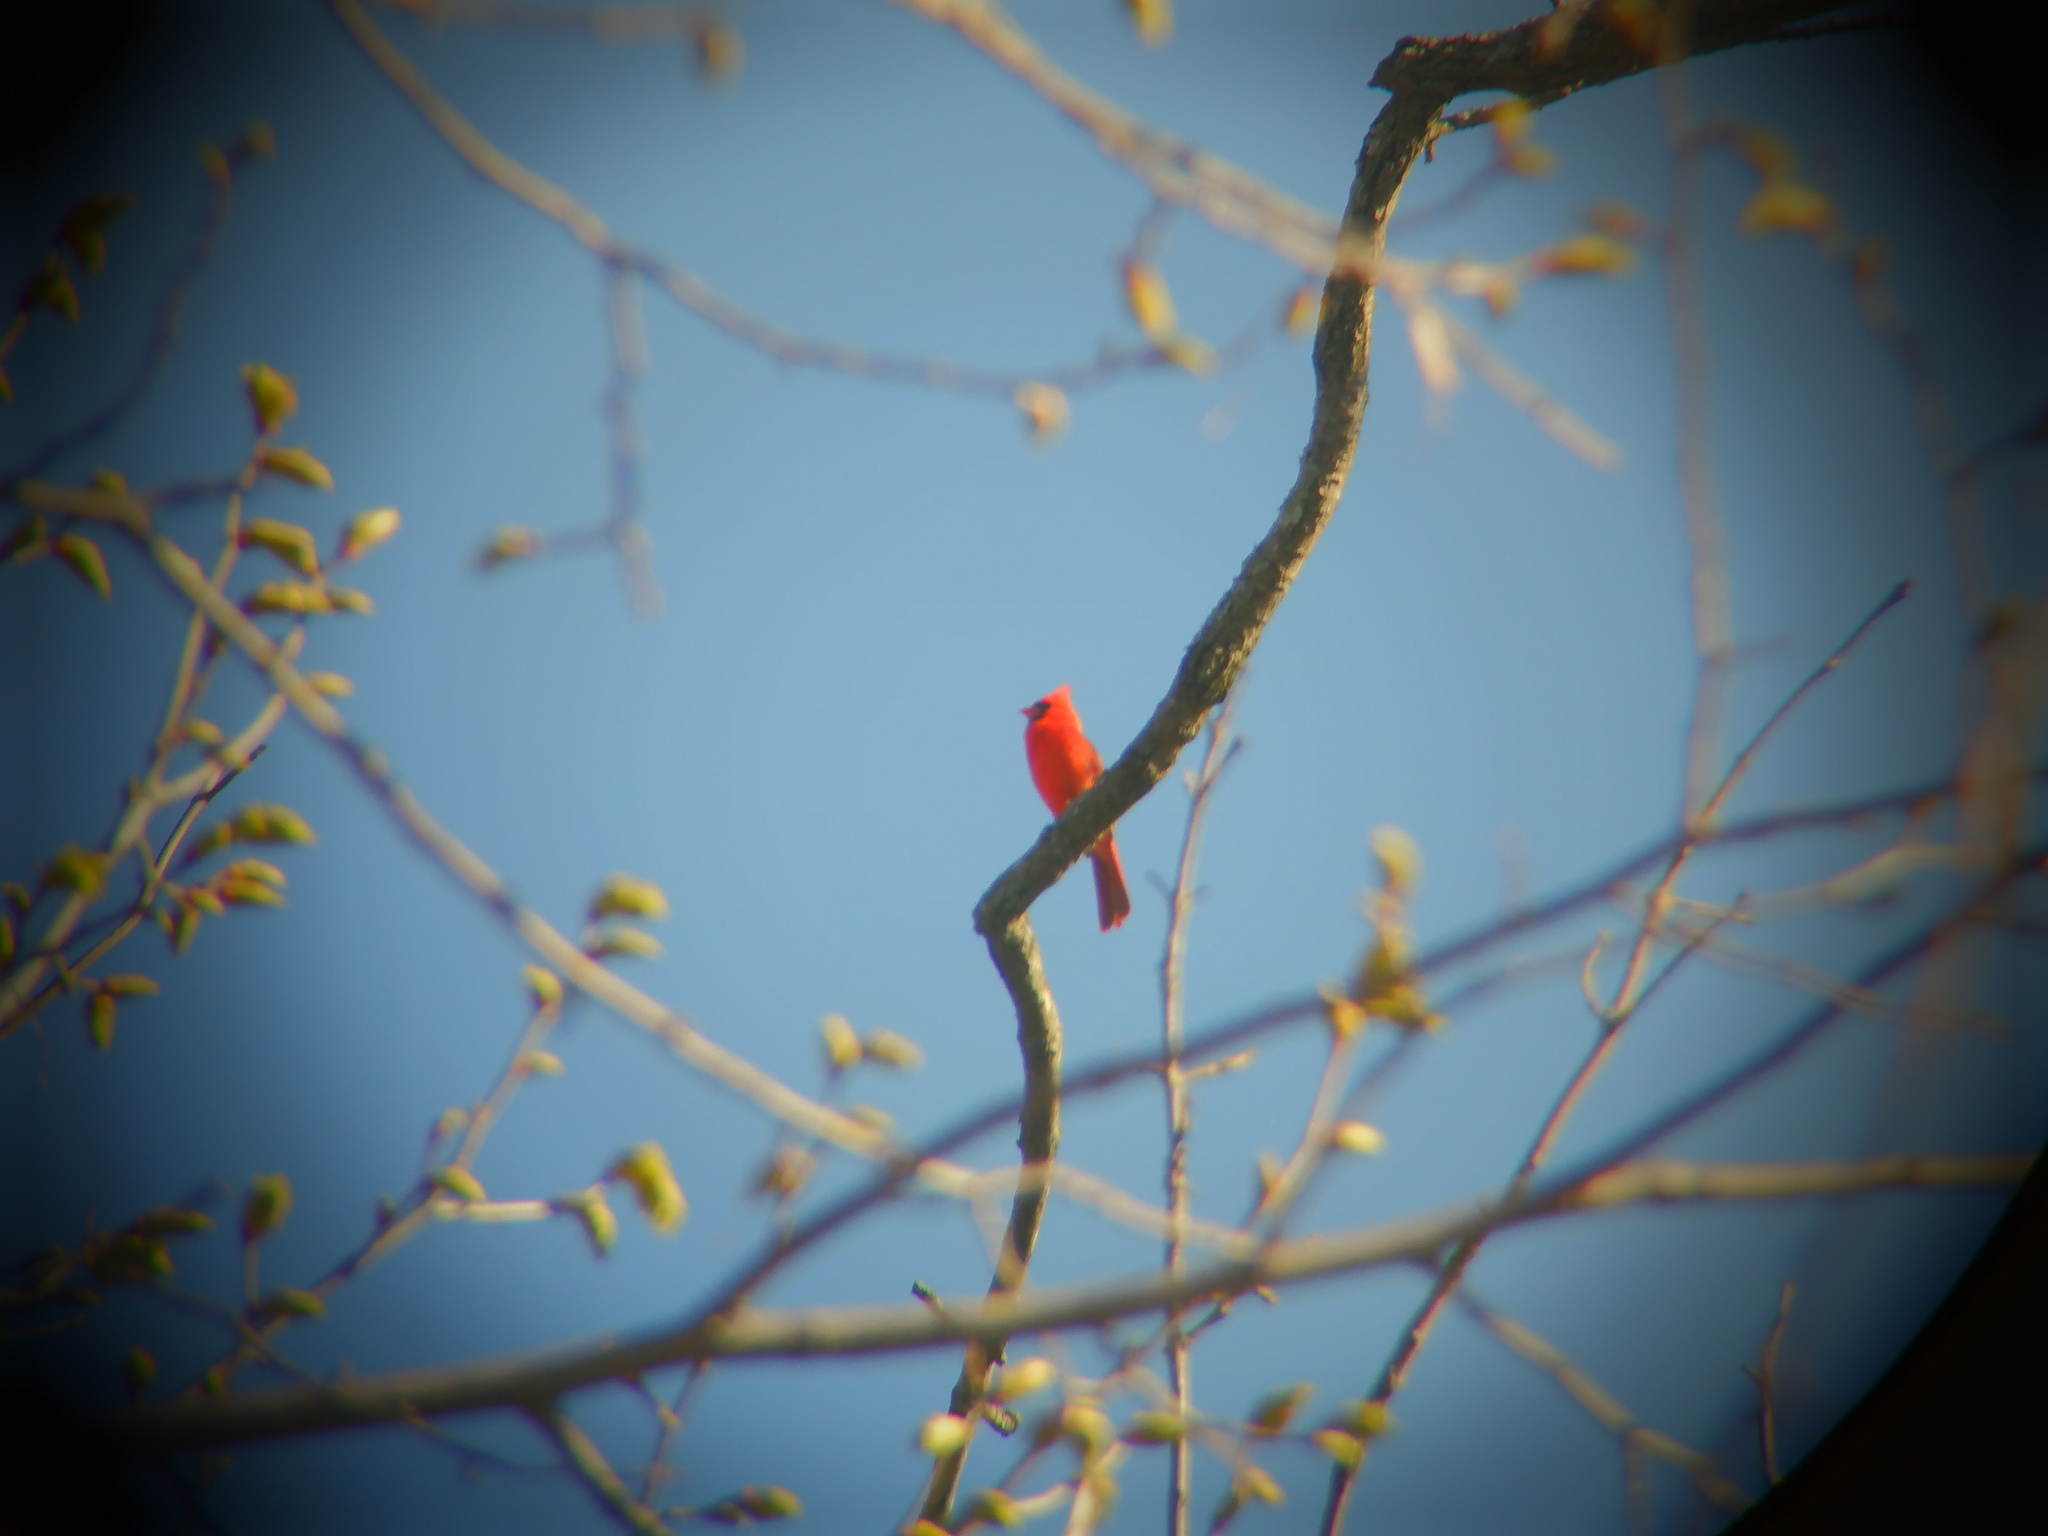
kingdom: Animalia
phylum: Chordata
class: Aves
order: Passeriformes
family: Cardinalidae
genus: Cardinalis
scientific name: Cardinalis cardinalis
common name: Northern cardinal
